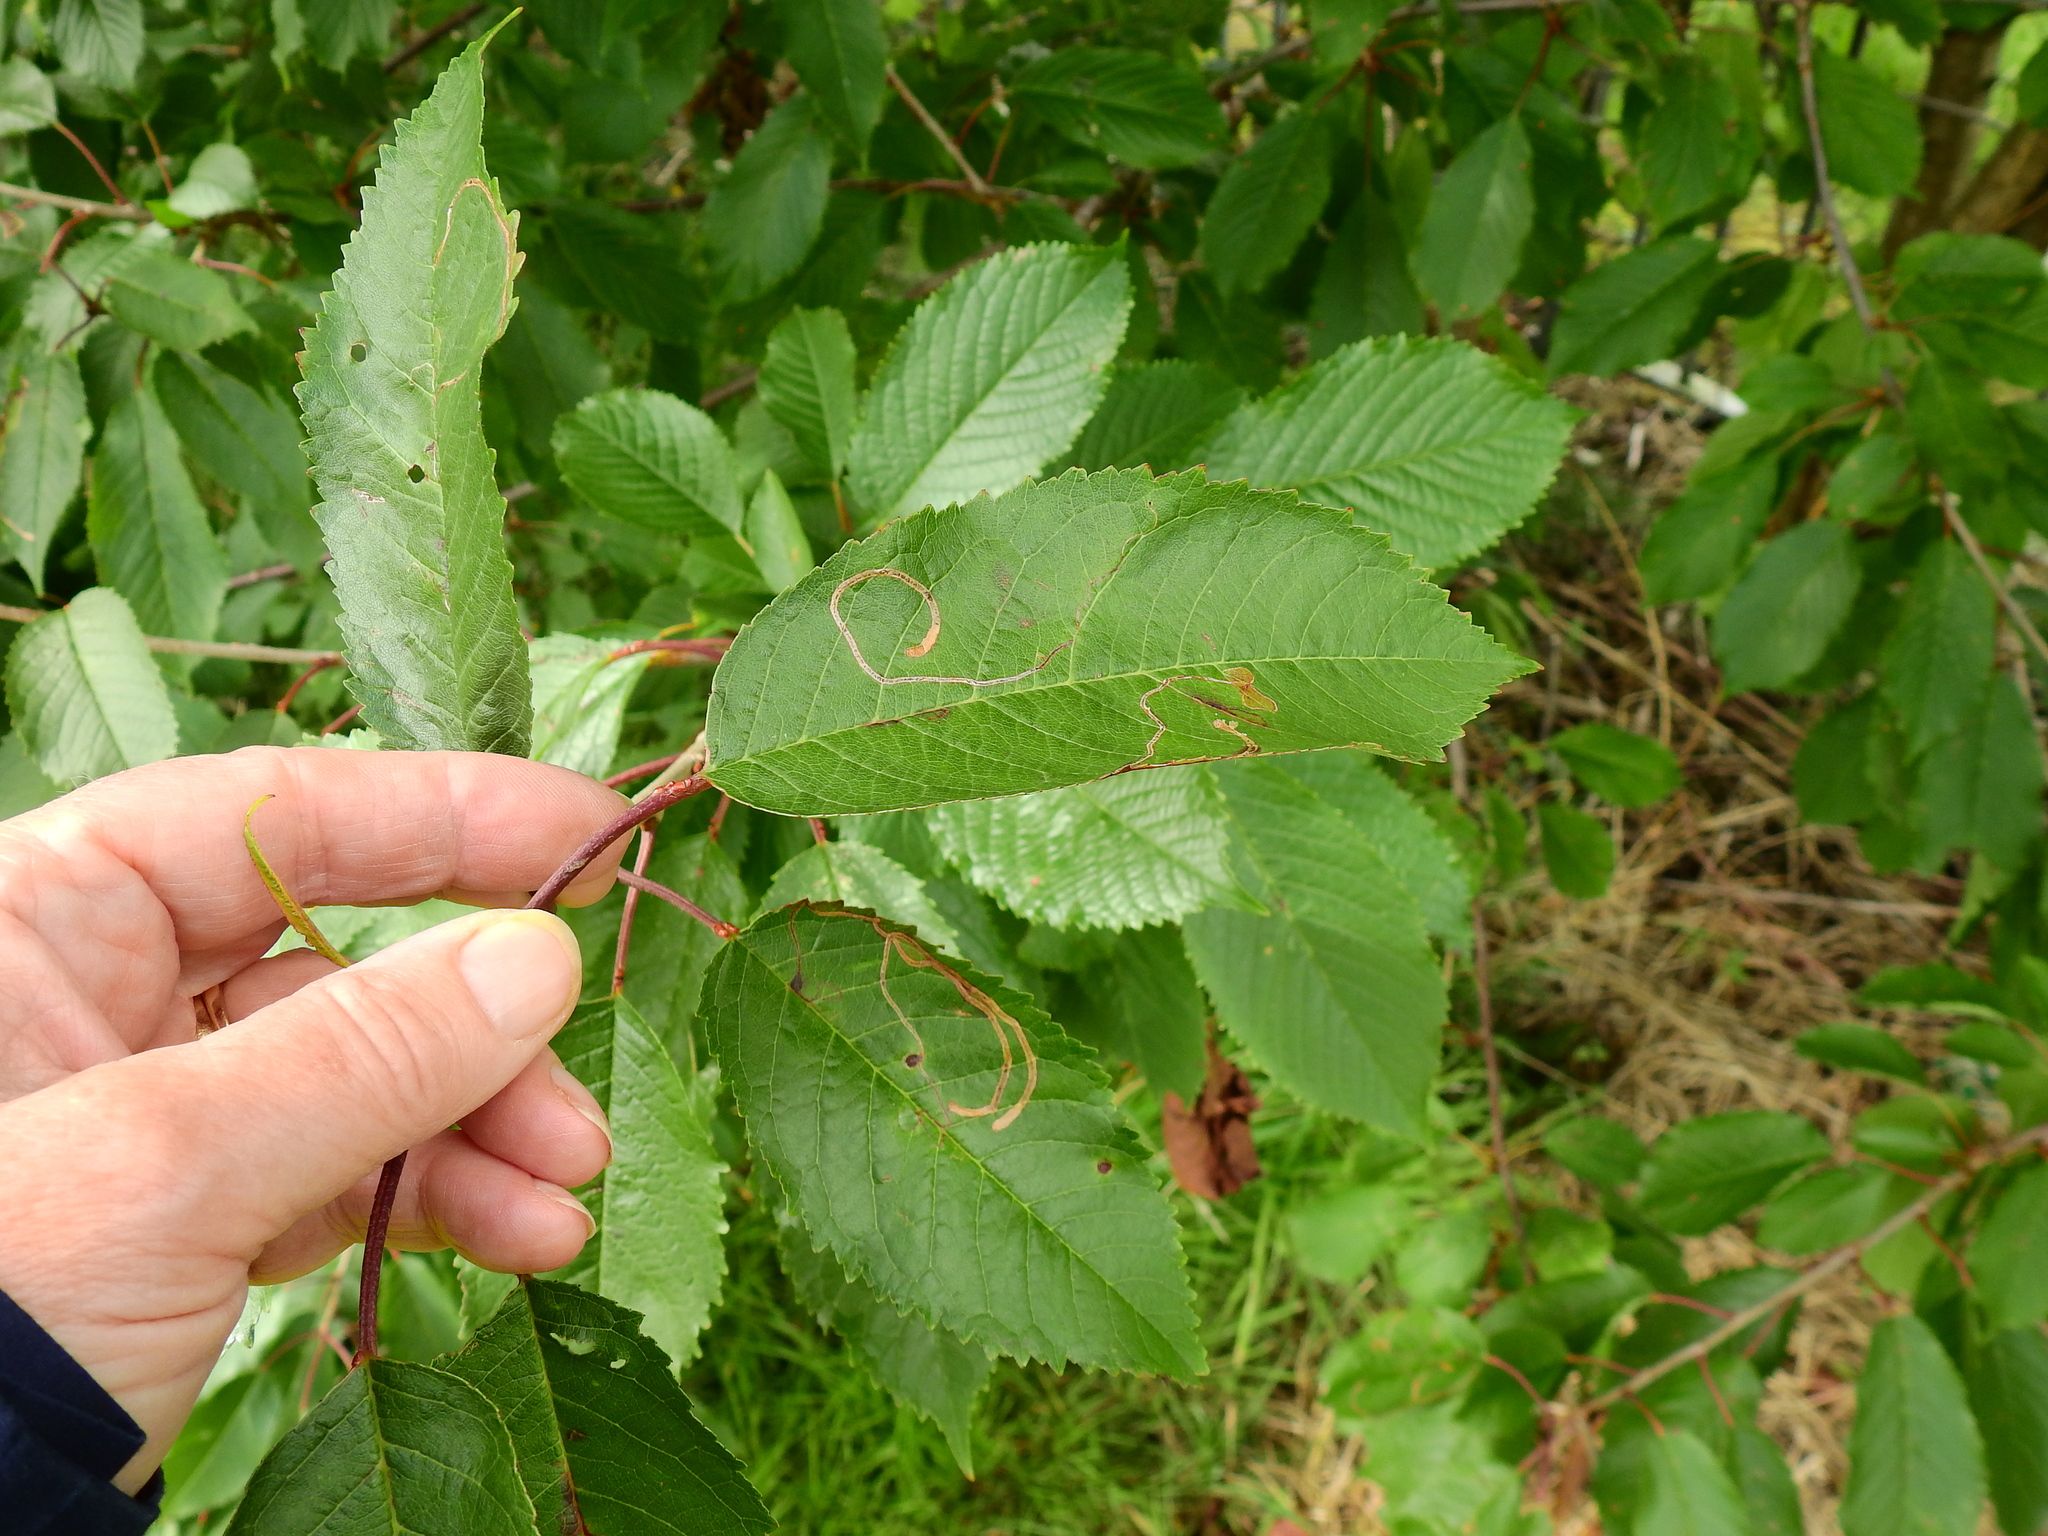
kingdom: Animalia
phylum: Arthropoda
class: Insecta
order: Lepidoptera
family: Lyonetiidae
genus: Lyonetia
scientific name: Lyonetia clerkella
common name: Apple leaf miner
